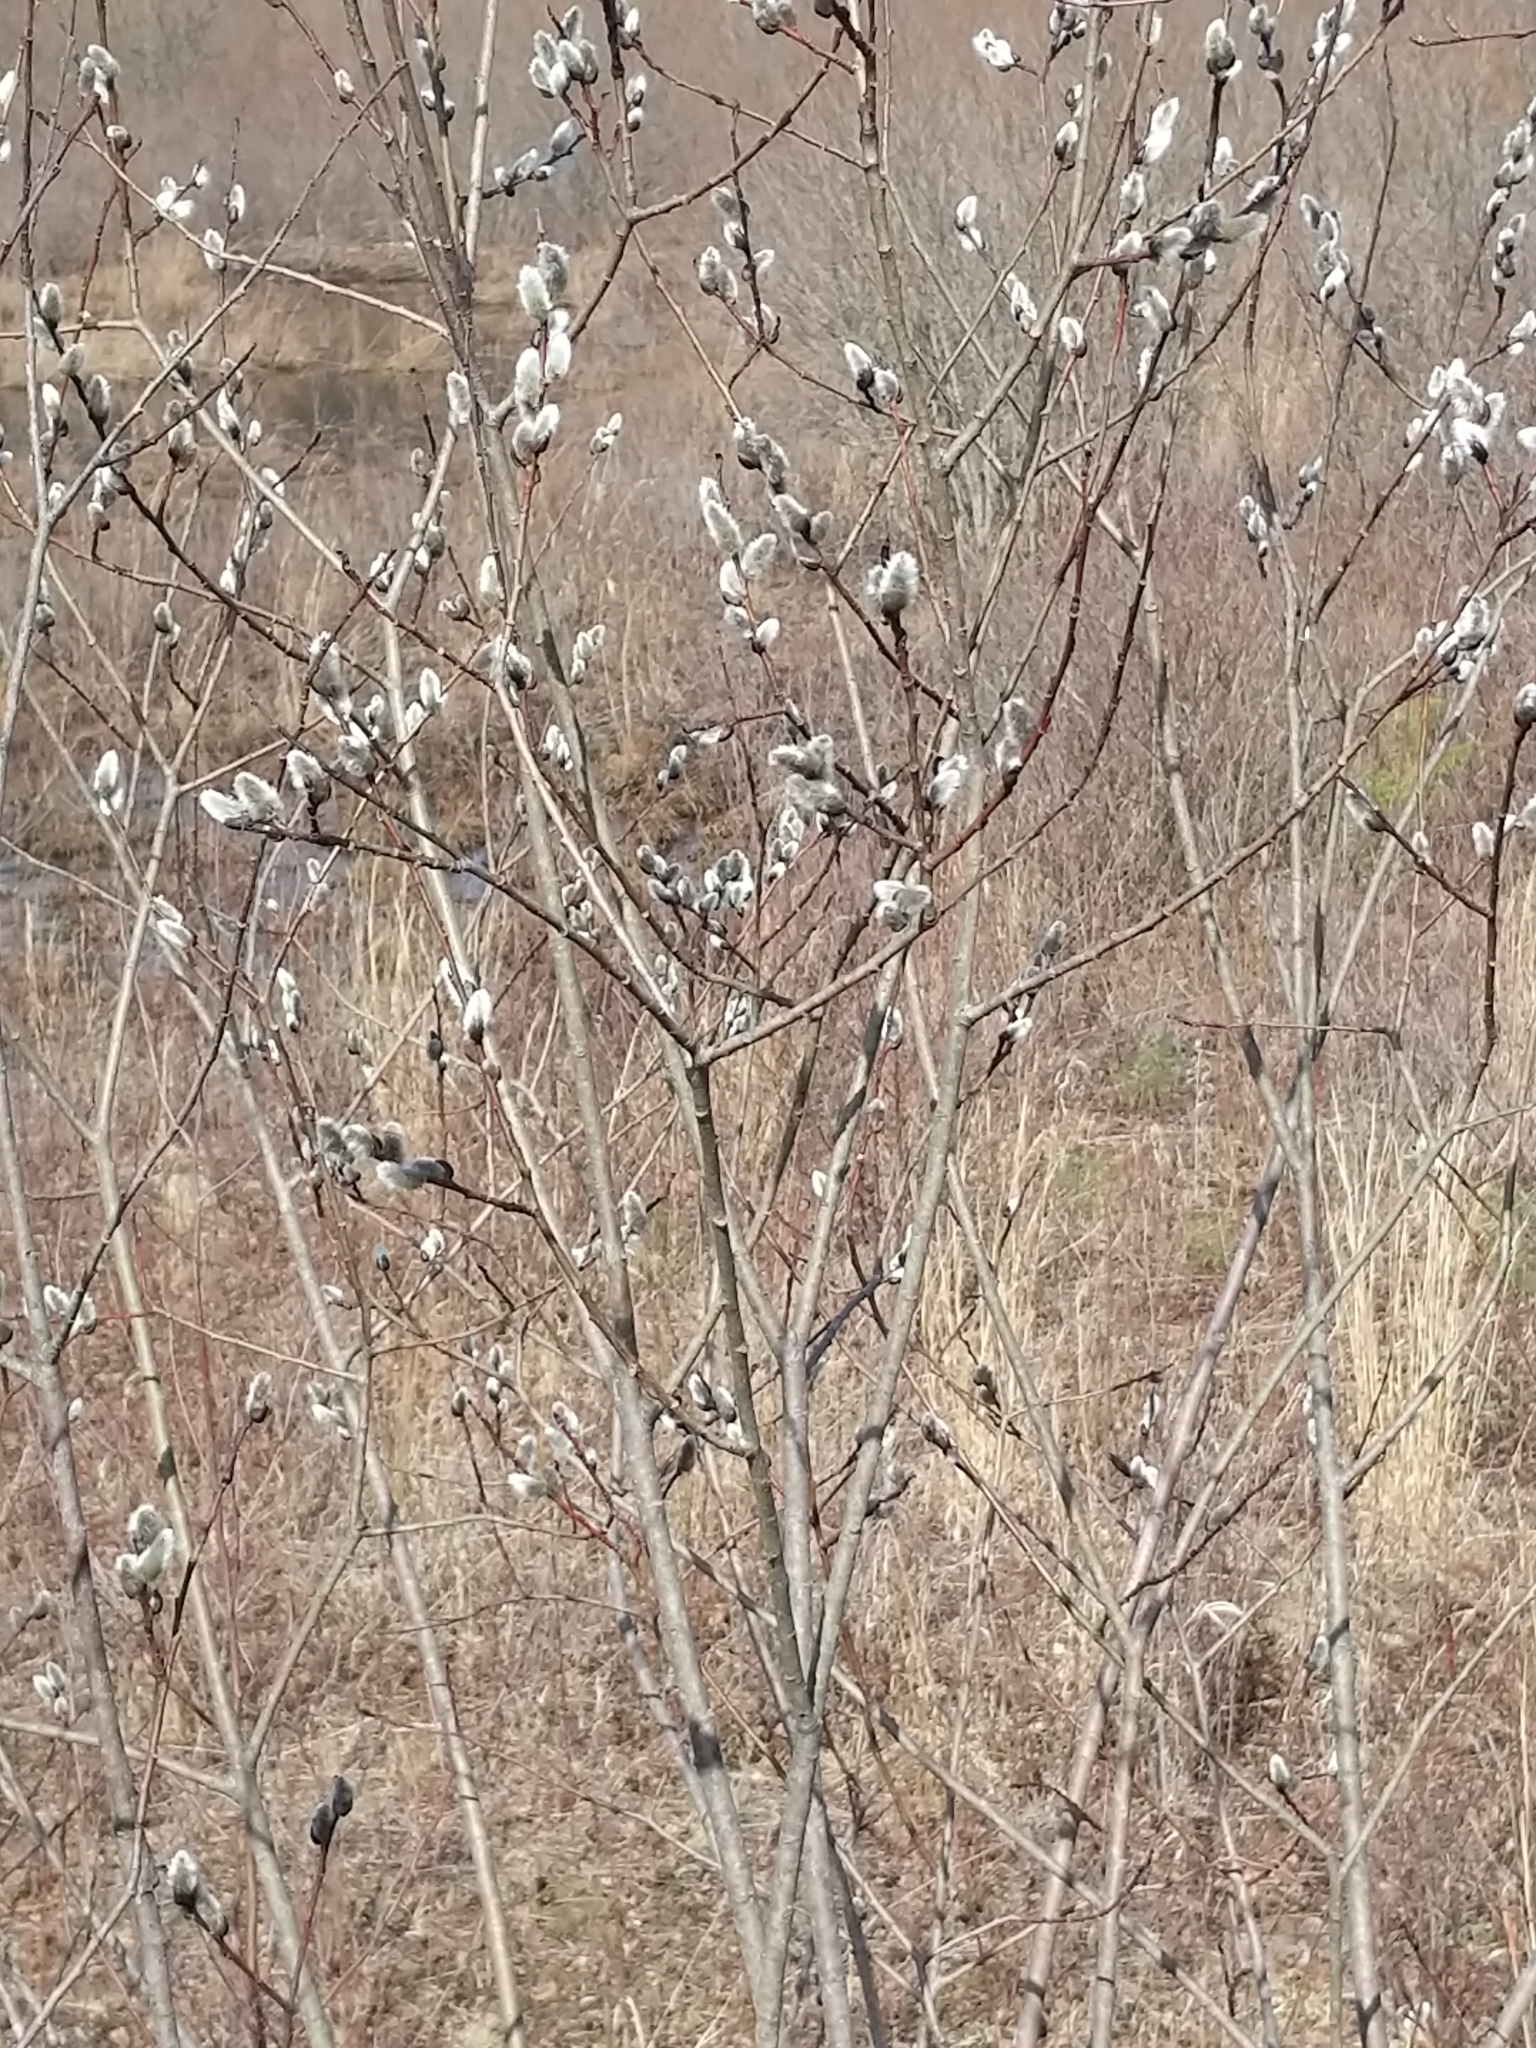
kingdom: Plantae
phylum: Tracheophyta
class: Magnoliopsida
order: Malpighiales
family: Salicaceae
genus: Salix
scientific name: Salix discolor
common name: Glaucous willow
